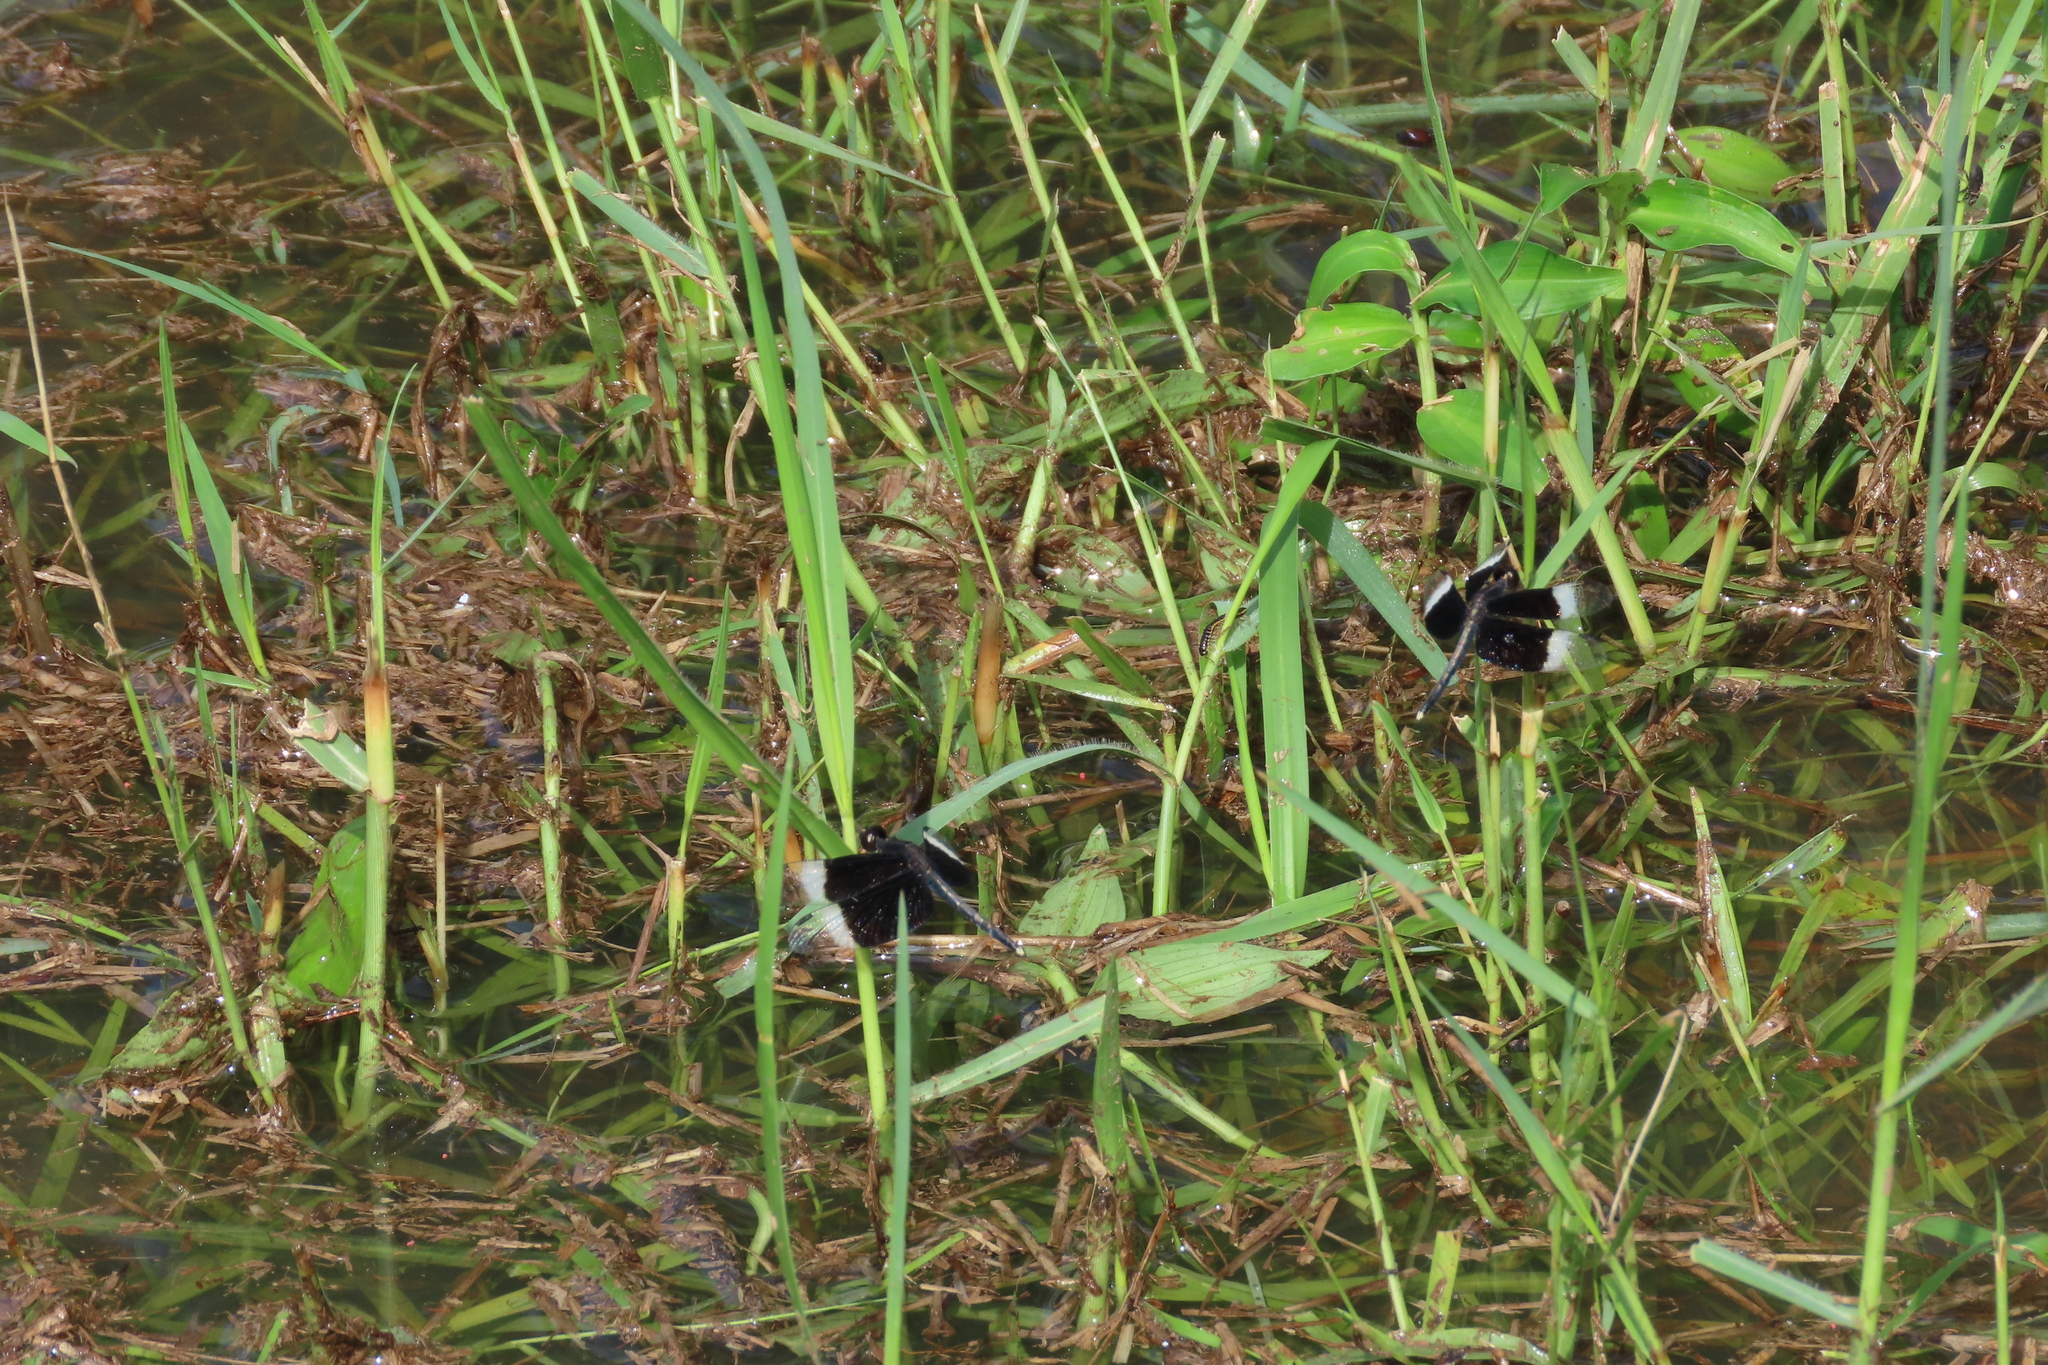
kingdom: Animalia
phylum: Arthropoda
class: Insecta
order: Odonata
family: Libellulidae
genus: Neurothemis
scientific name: Neurothemis tullia
